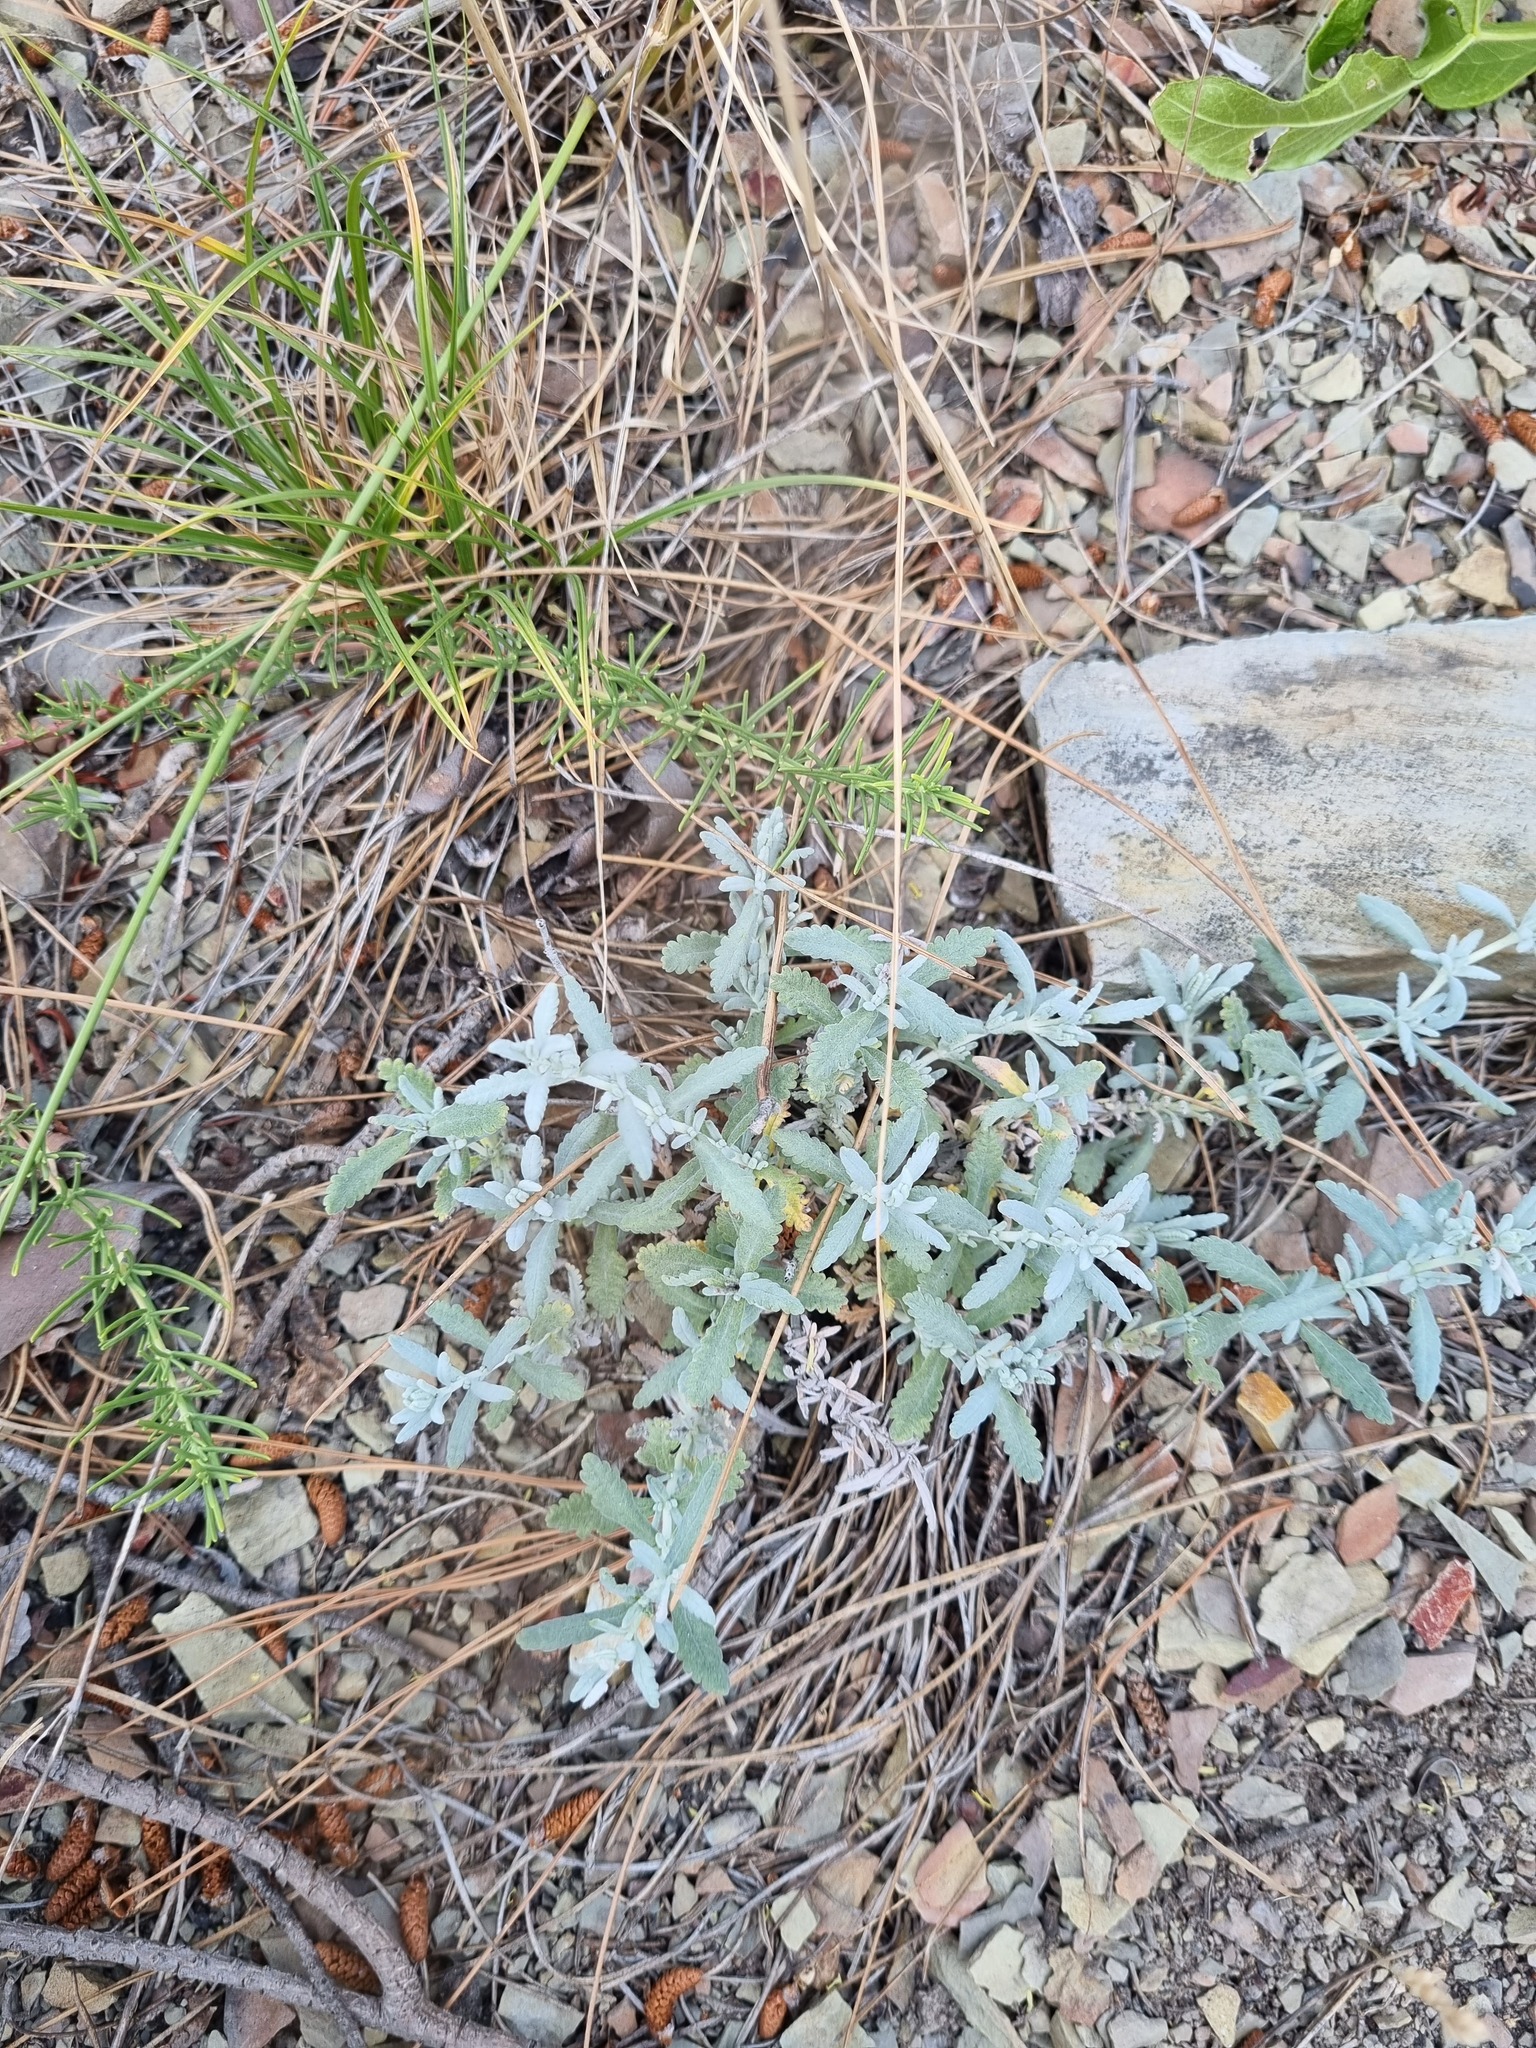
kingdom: Plantae
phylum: Tracheophyta
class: Magnoliopsida
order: Lamiales
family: Lamiaceae
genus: Teucrium
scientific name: Teucrium polium
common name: Poley
